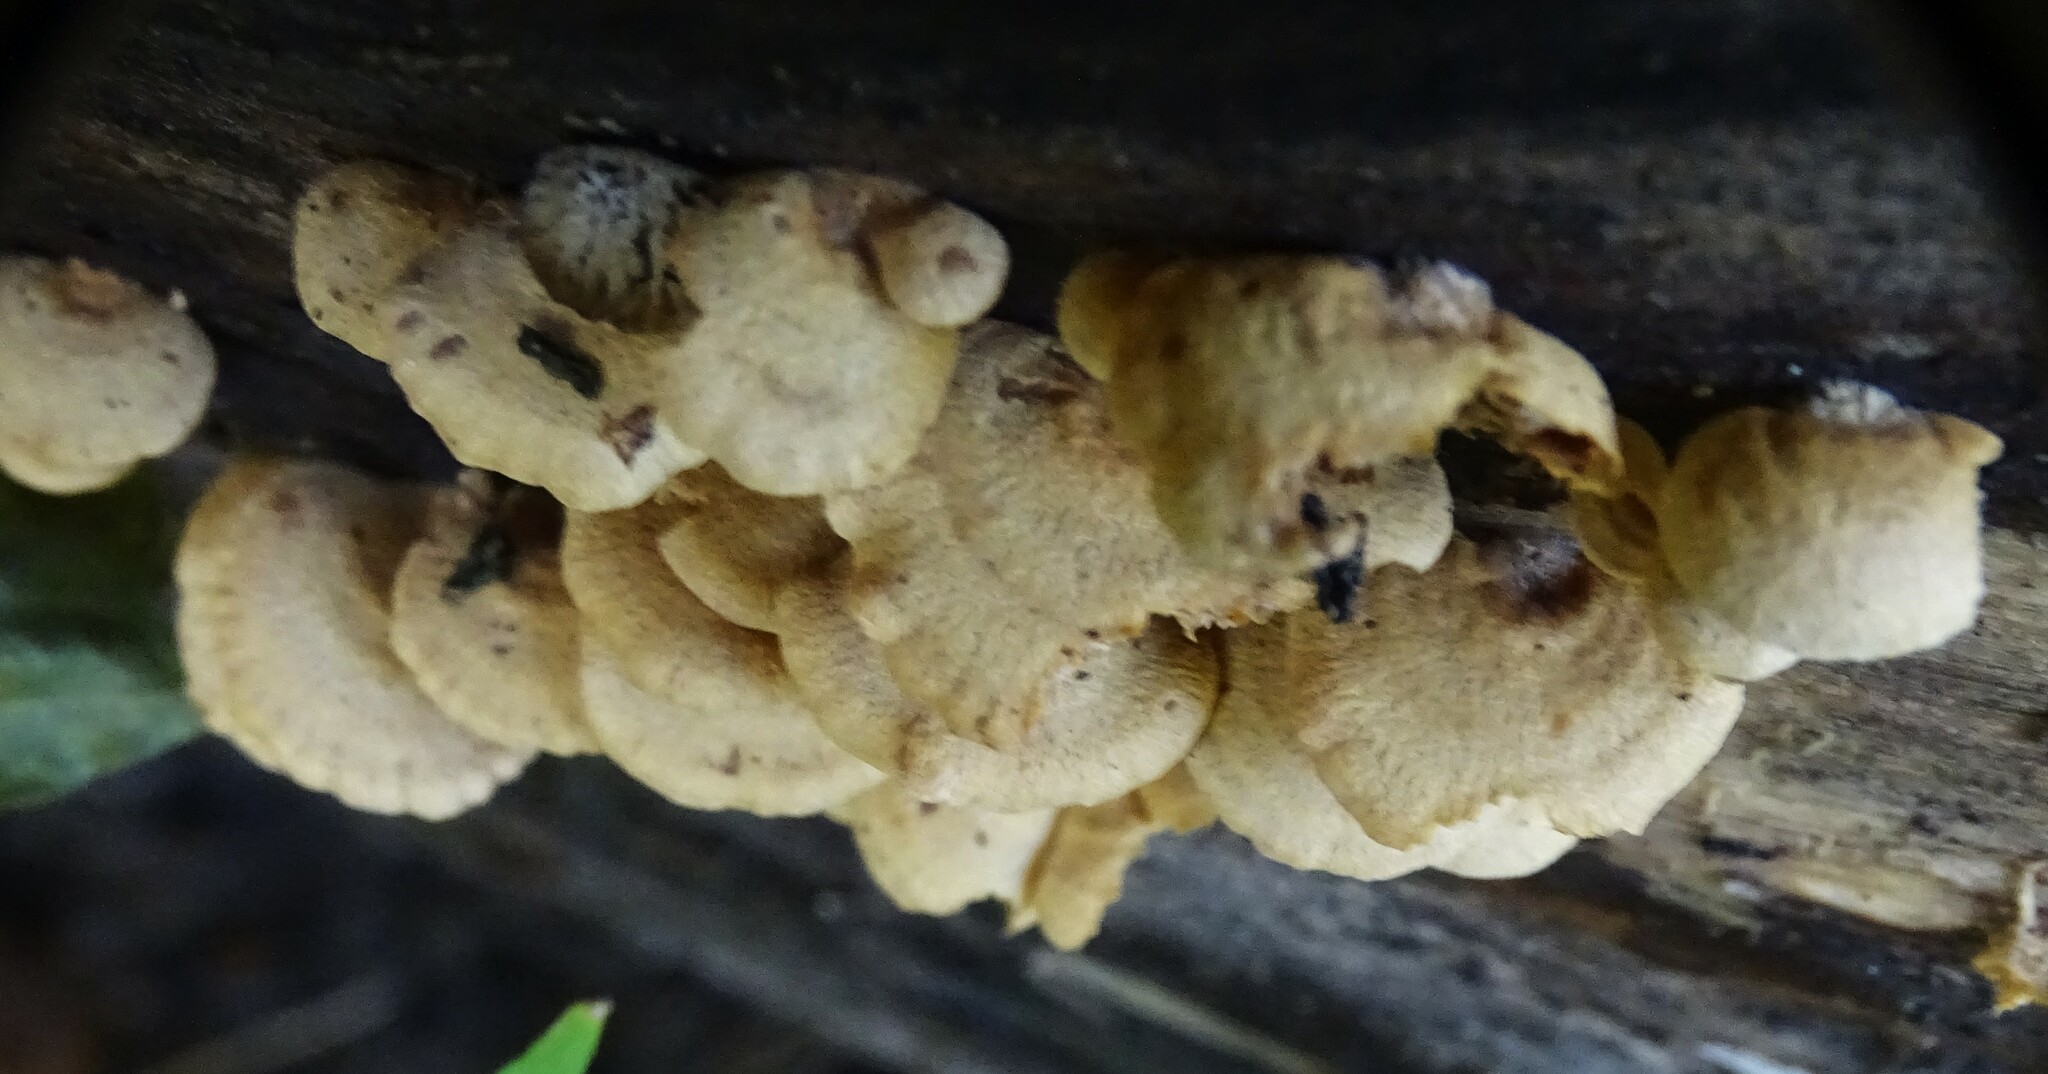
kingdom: Fungi
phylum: Basidiomycota
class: Agaricomycetes
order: Agaricales
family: Mycenaceae
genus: Panellus
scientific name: Panellus stipticus
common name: Bitter oysterling
